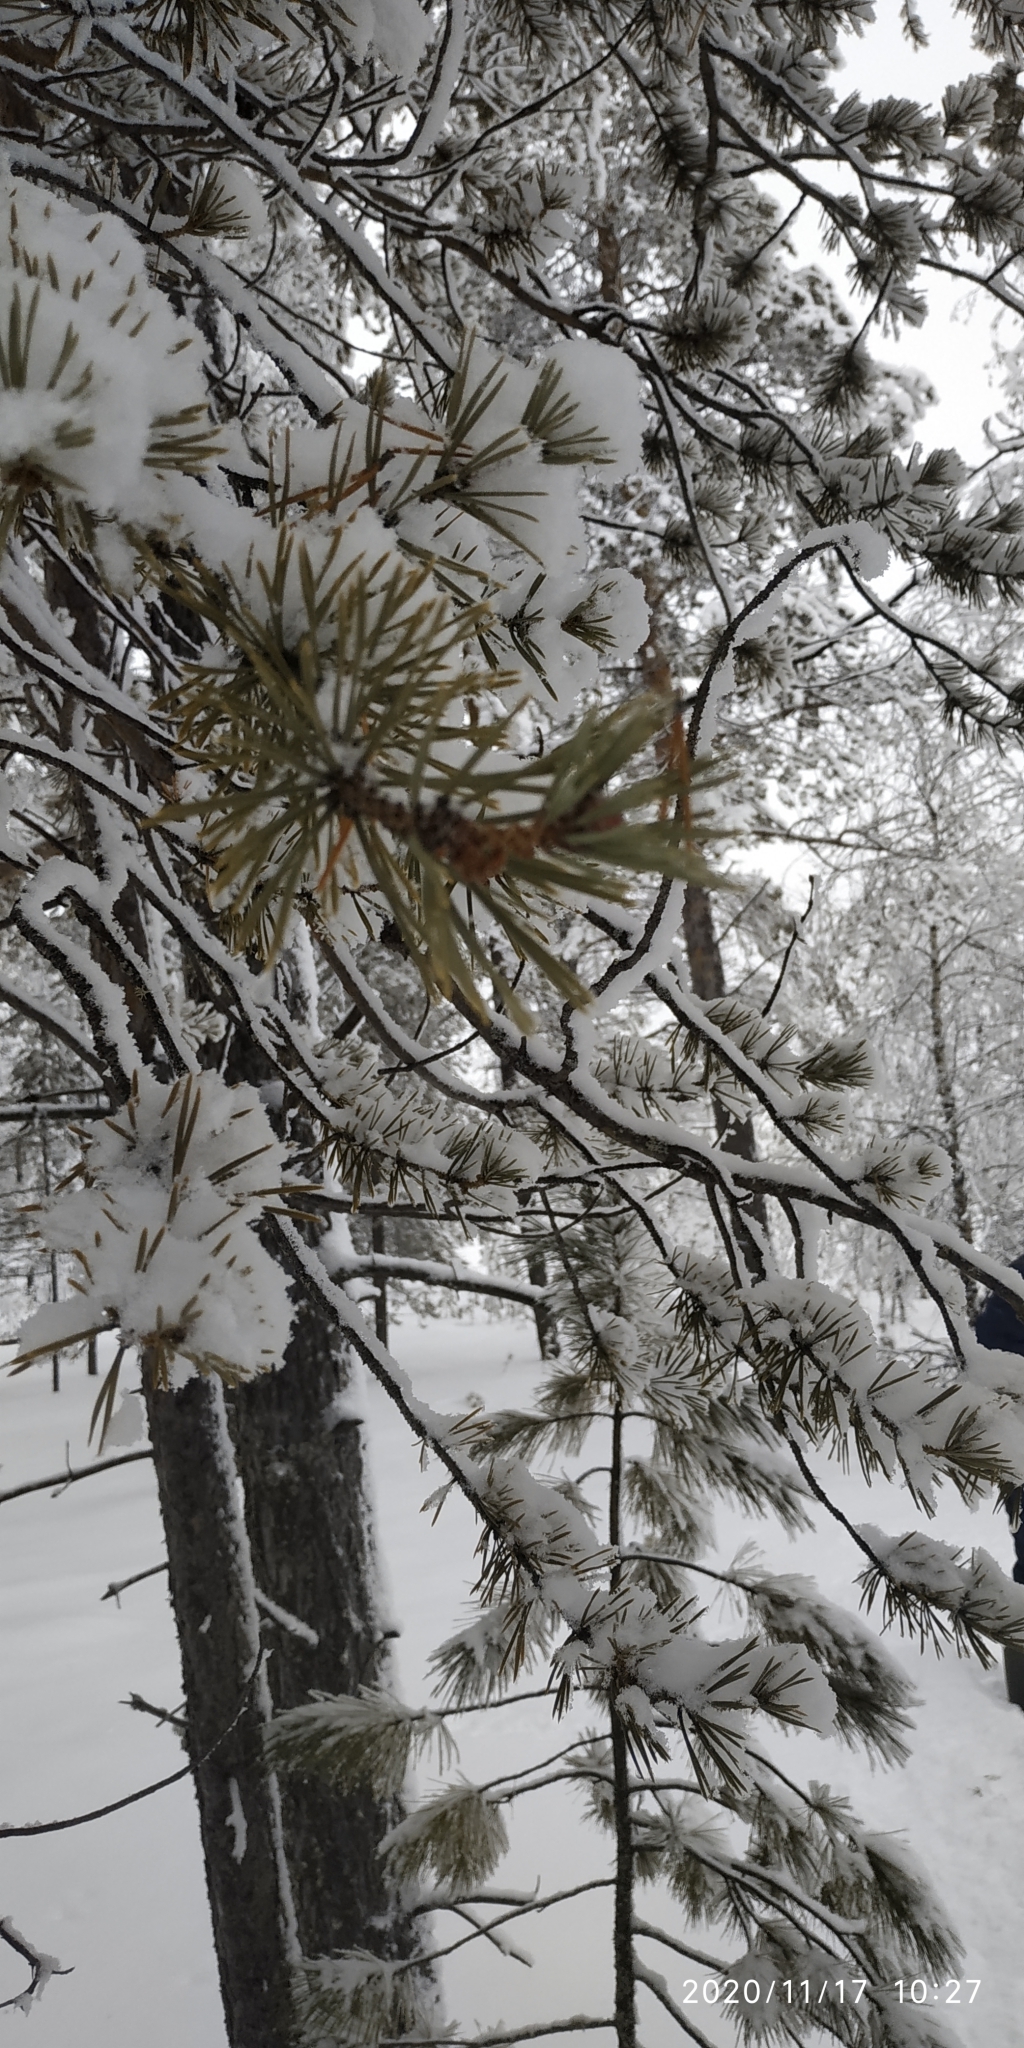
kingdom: Plantae
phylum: Tracheophyta
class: Pinopsida
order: Pinales
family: Pinaceae
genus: Pinus
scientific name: Pinus sylvestris
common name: Scots pine
